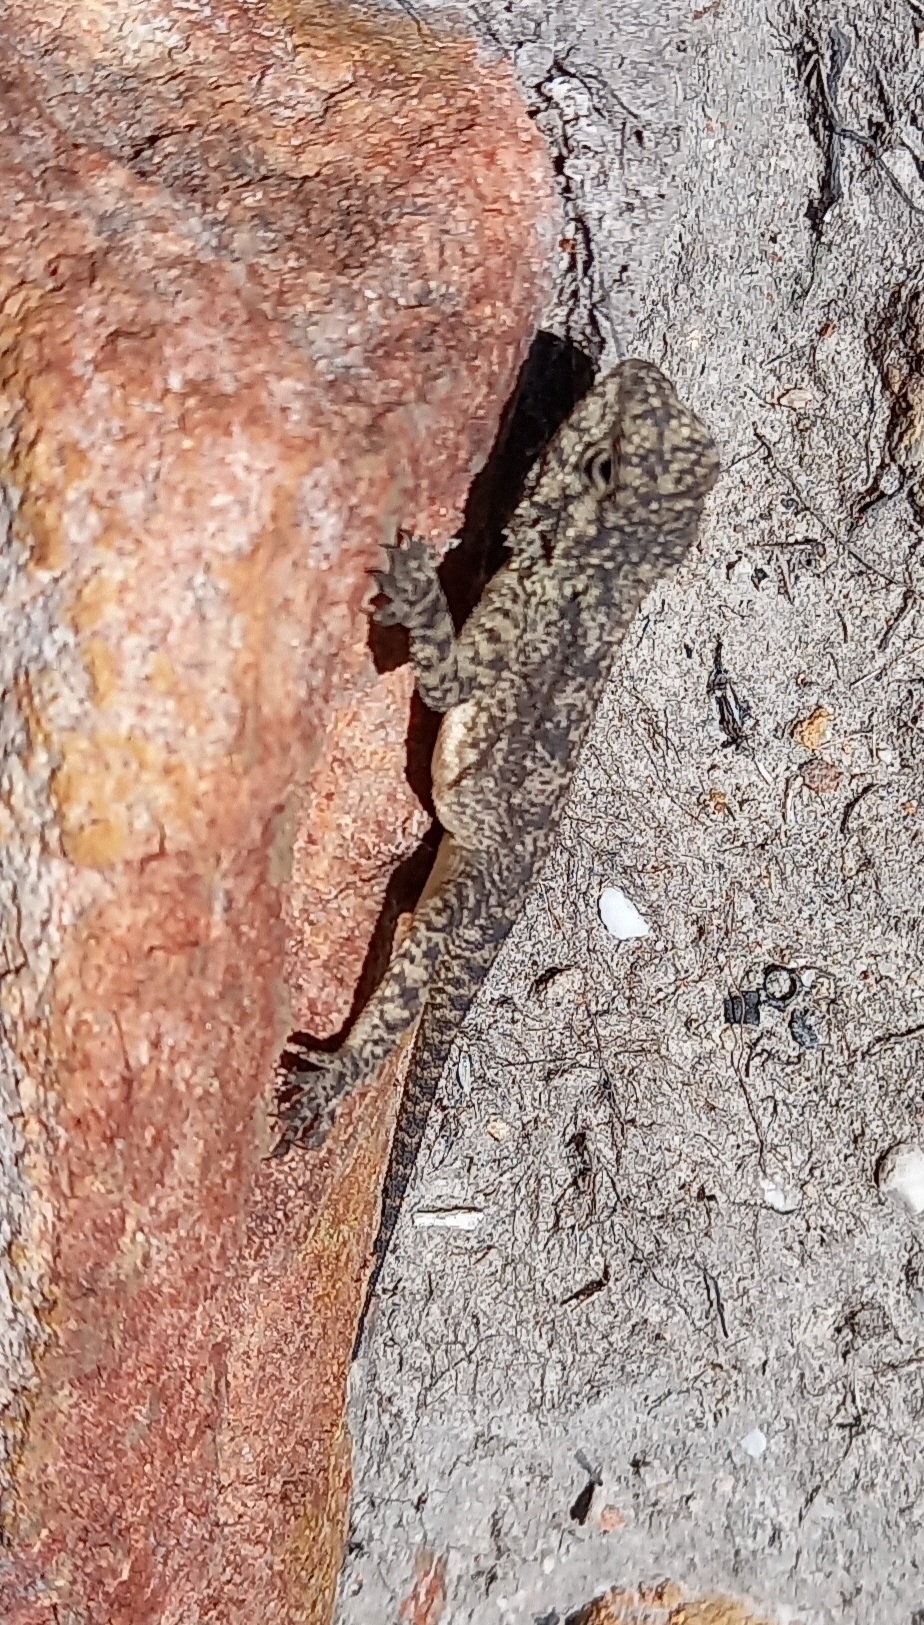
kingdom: Animalia
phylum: Chordata
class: Squamata
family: Agamidae
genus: Agama
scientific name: Agama atra
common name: Southern african rock agama
